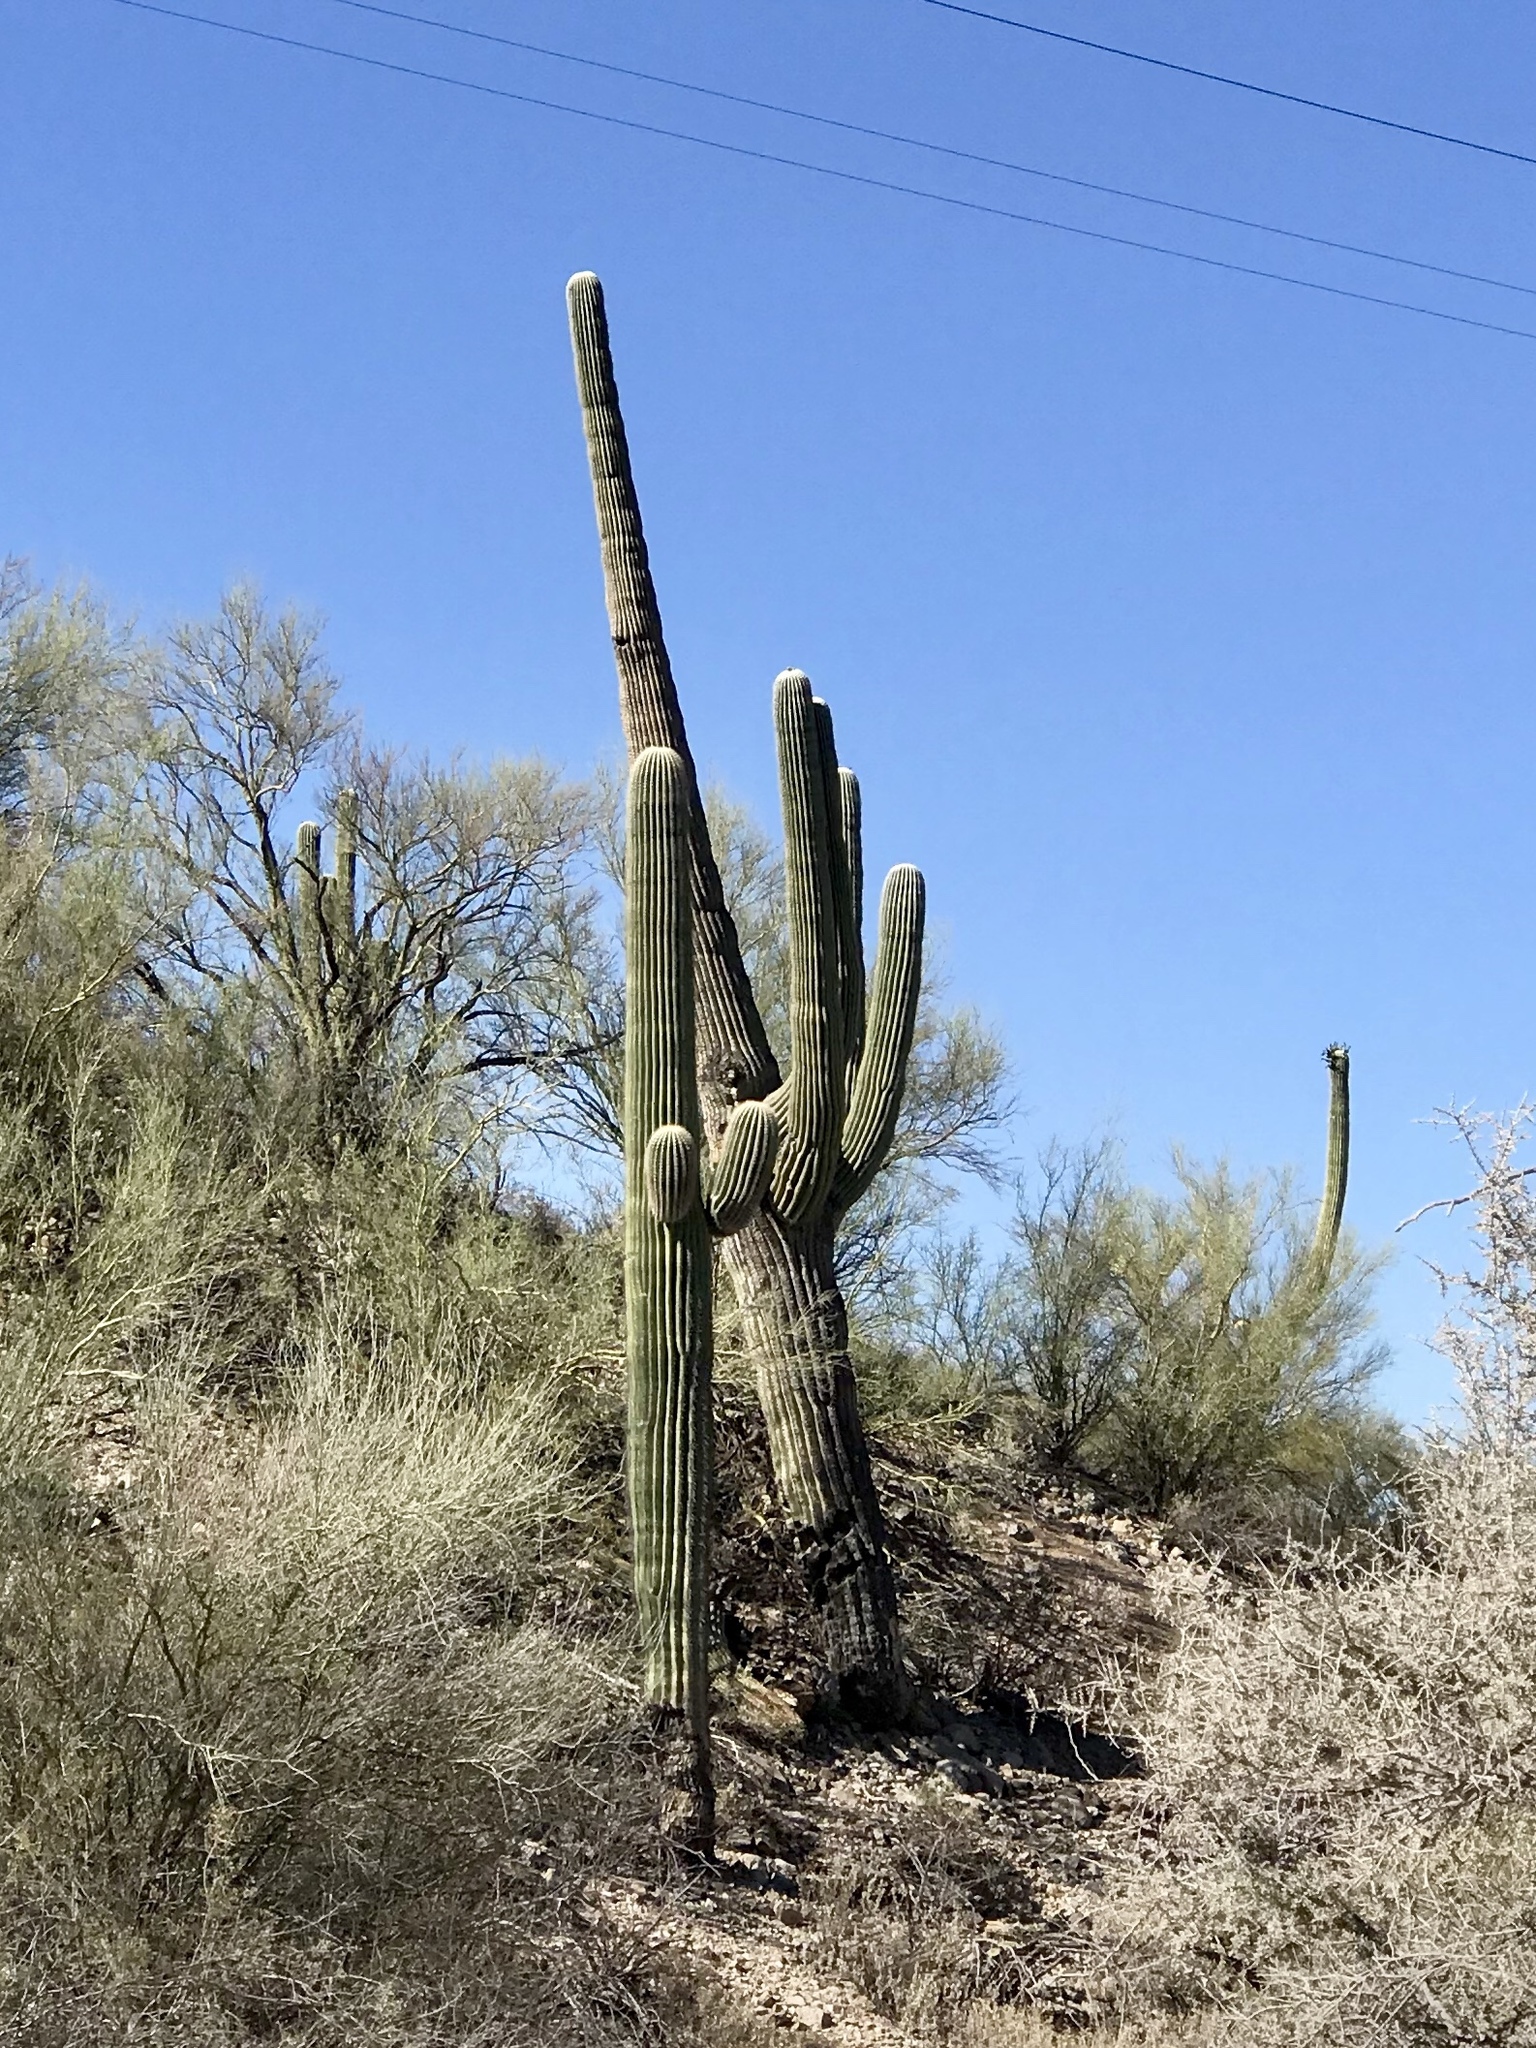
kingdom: Plantae
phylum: Tracheophyta
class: Magnoliopsida
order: Caryophyllales
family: Cactaceae
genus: Carnegiea
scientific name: Carnegiea gigantea
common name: Saguaro
